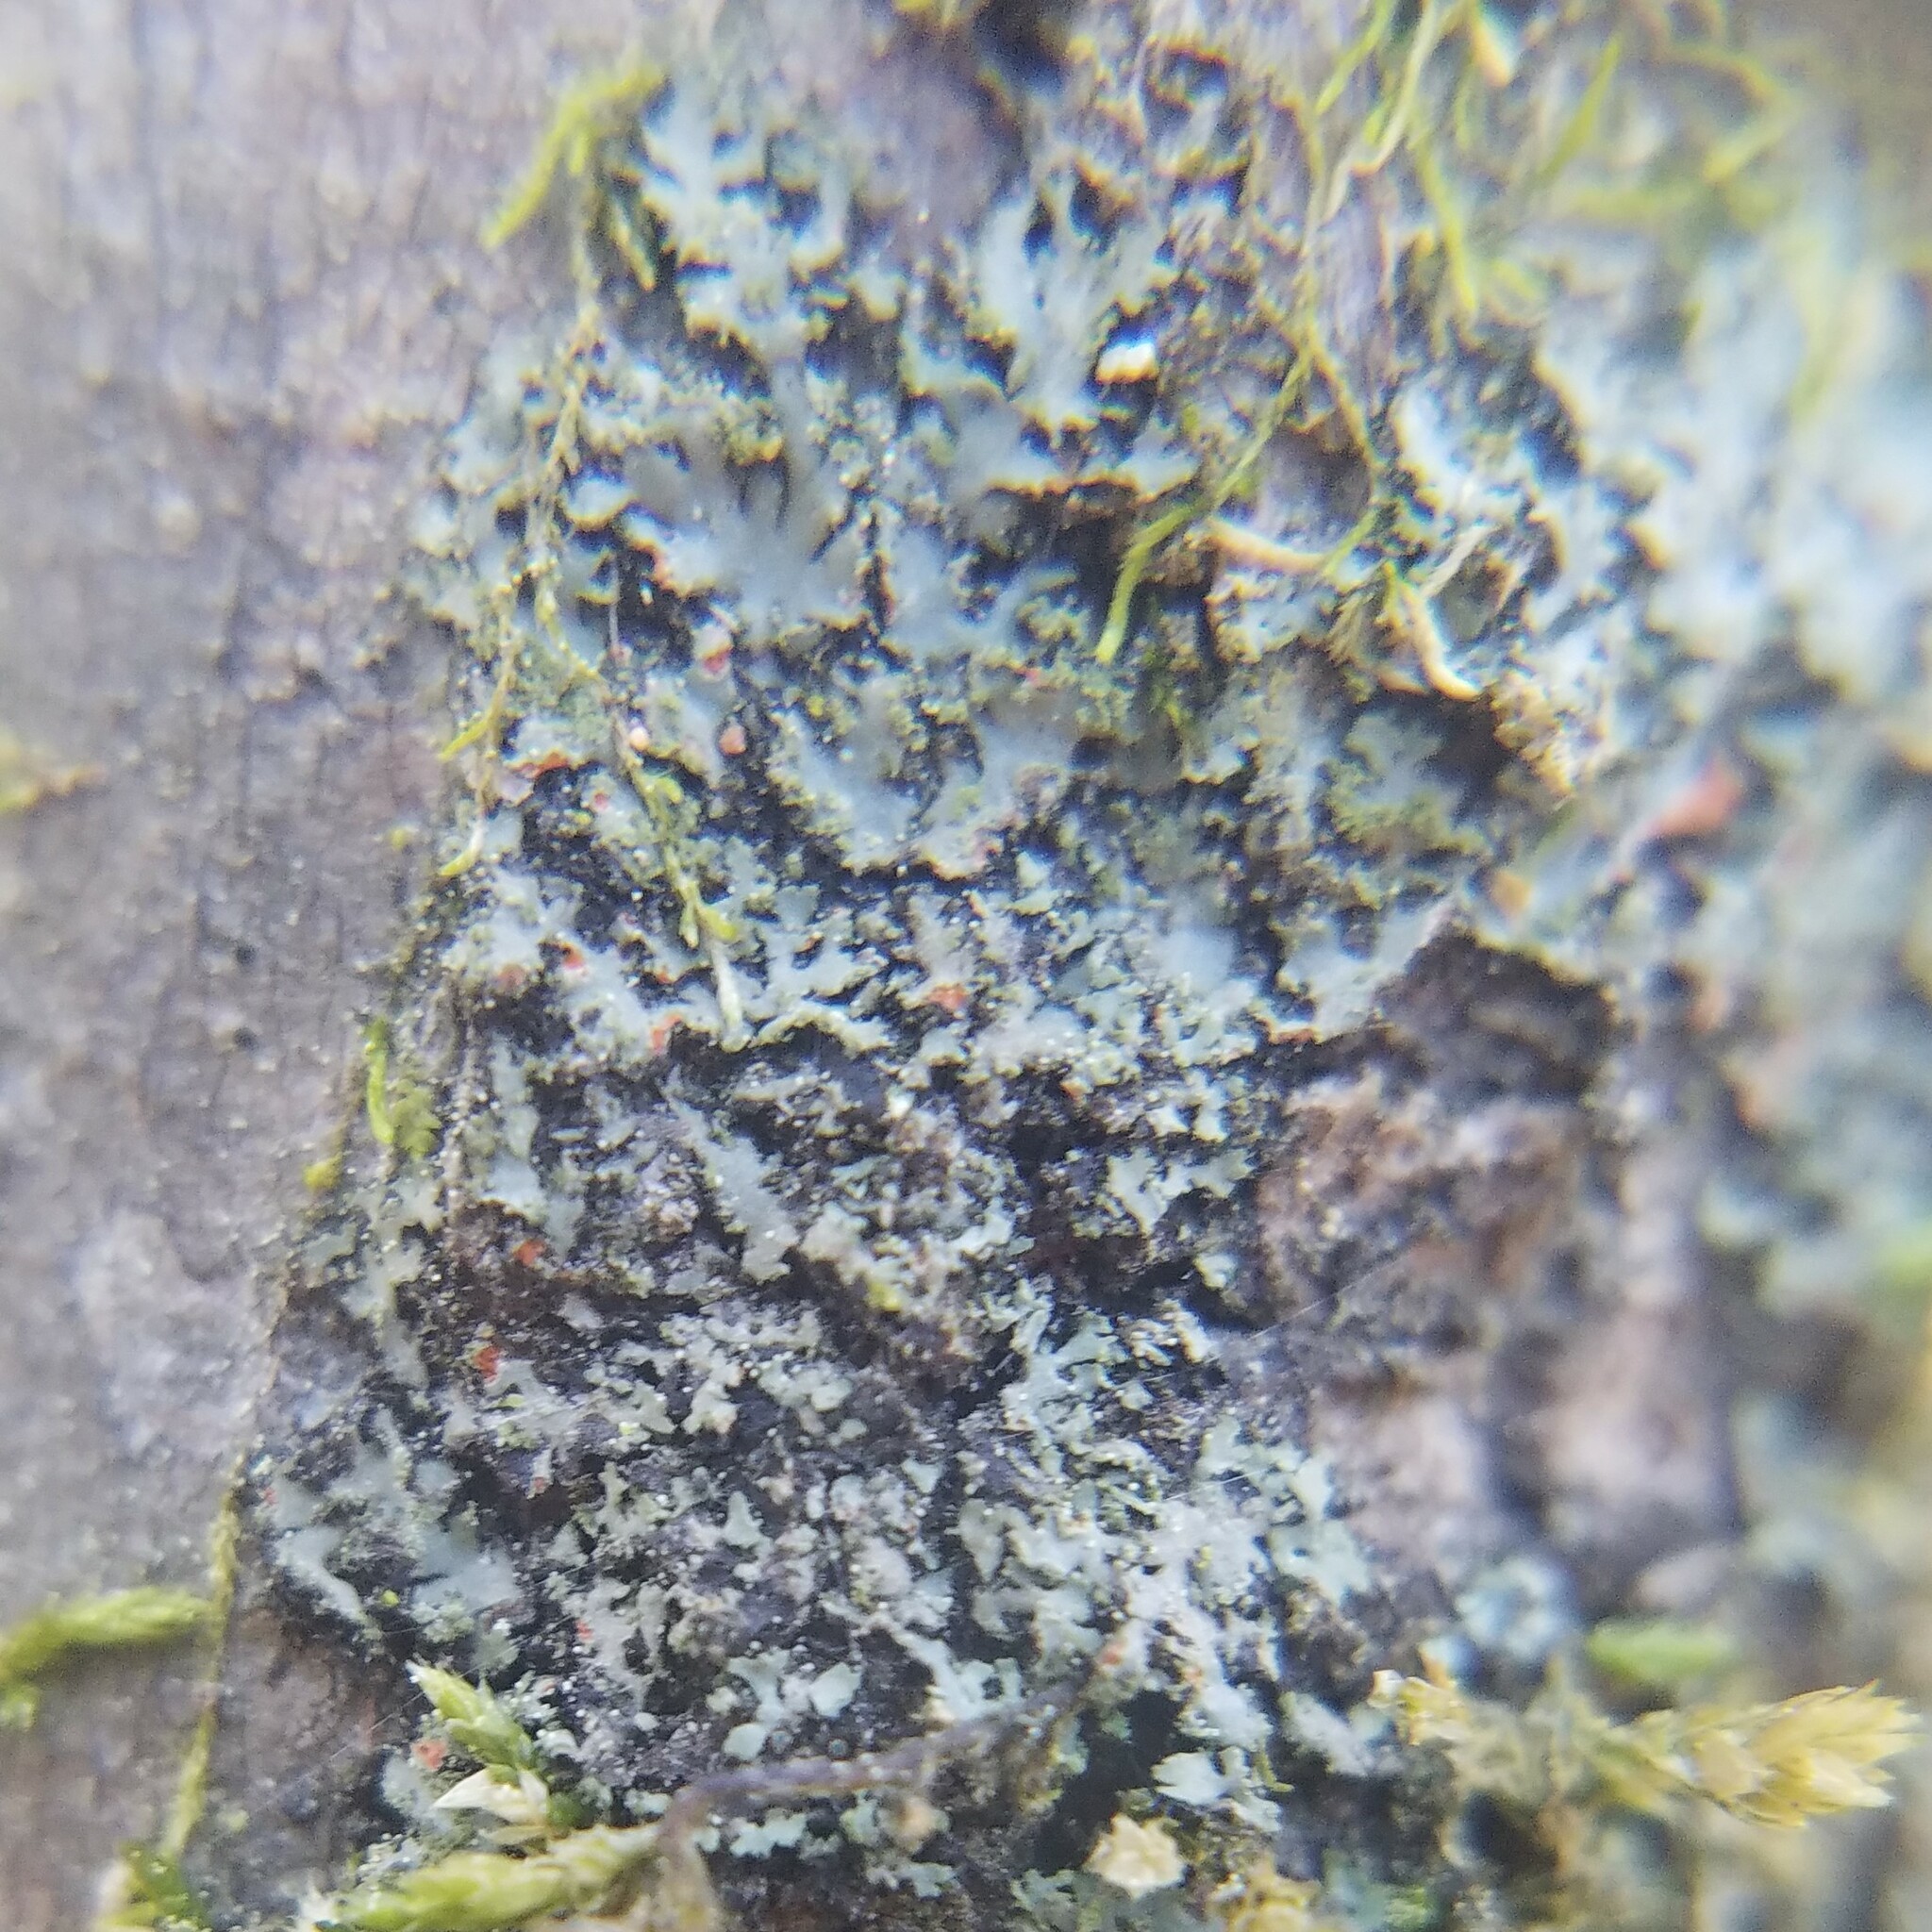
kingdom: Fungi
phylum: Ascomycota
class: Lecanoromycetes
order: Caliciales
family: Physciaceae
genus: Phaeophyscia
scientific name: Phaeophyscia rubropulchra
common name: Orange-cored shadow lichen
